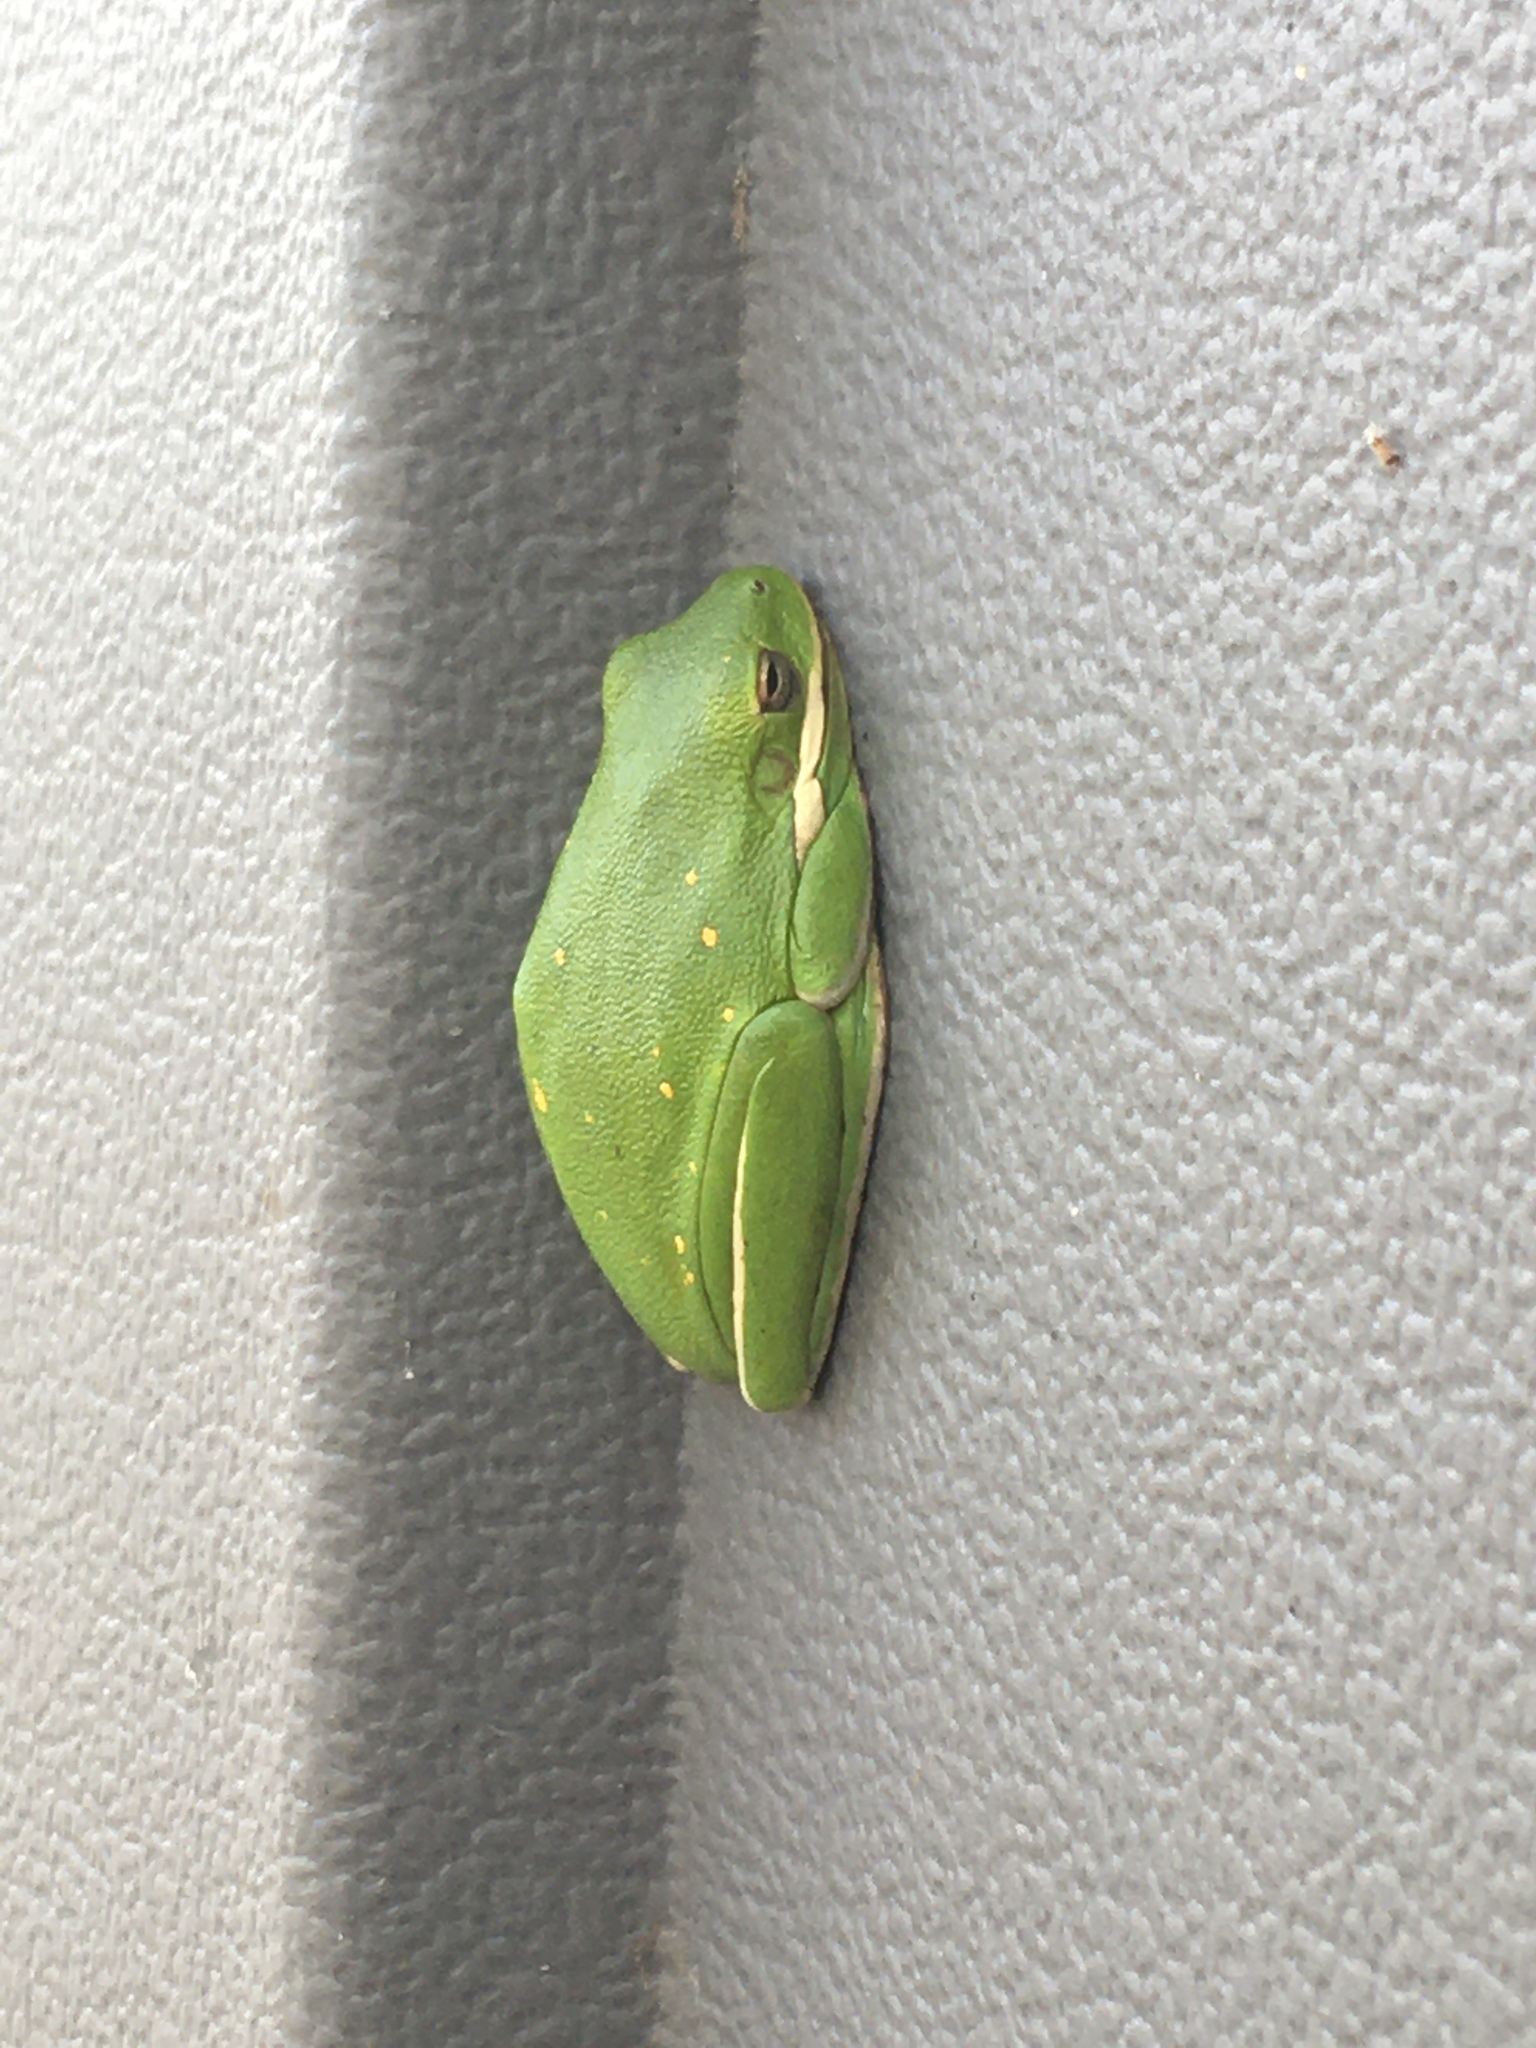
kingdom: Animalia
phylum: Chordata
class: Amphibia
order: Anura
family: Hylidae
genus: Dryophytes
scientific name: Dryophytes cinereus
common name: Green treefrog
